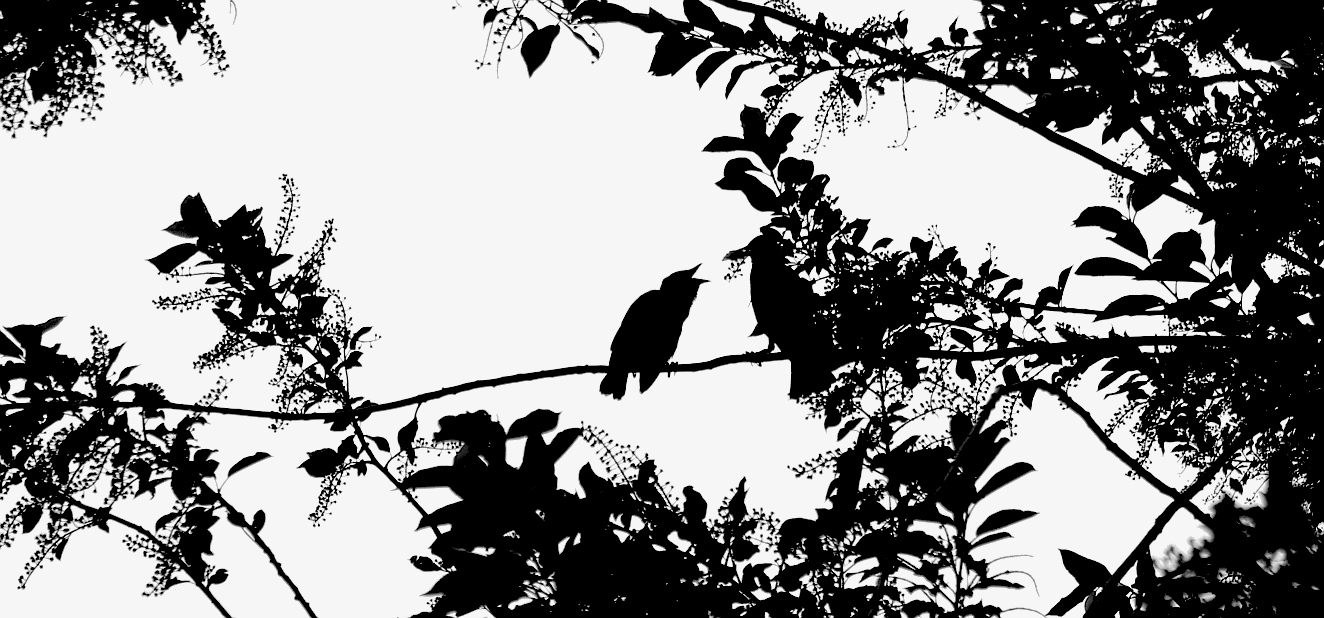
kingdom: Animalia
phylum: Chordata
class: Aves
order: Passeriformes
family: Sturnidae
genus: Sturnus
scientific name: Sturnus vulgaris
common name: Common starling
